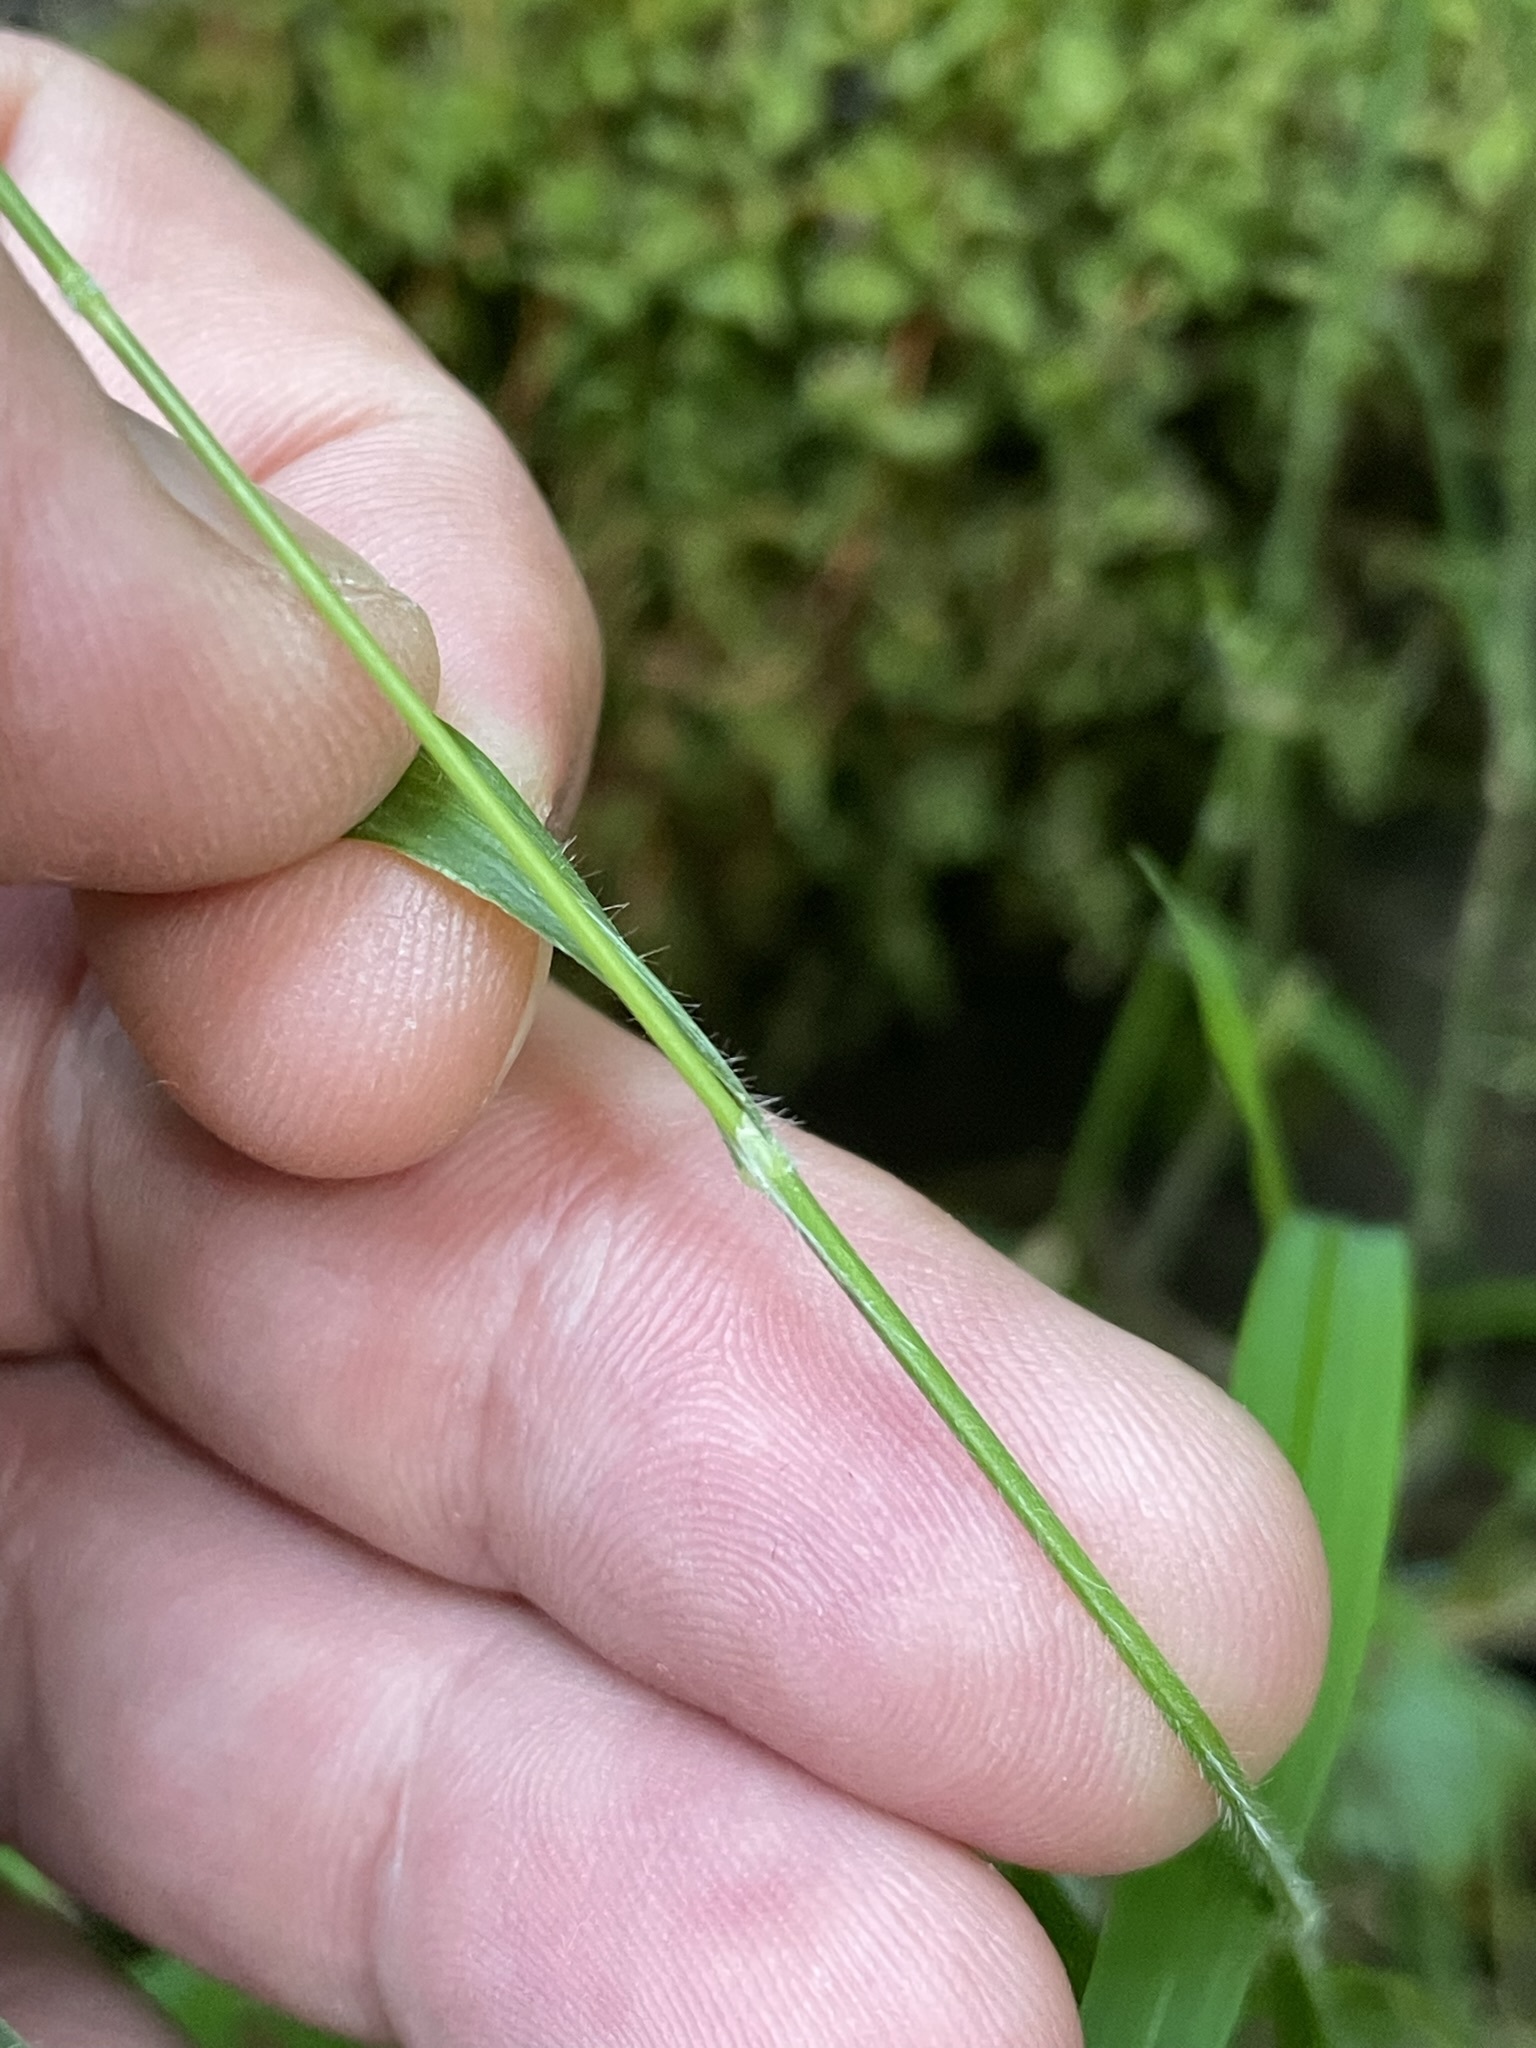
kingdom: Plantae
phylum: Tracheophyta
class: Liliopsida
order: Poales
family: Poaceae
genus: Brachypodium
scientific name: Brachypodium sylvaticum
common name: False-brome
